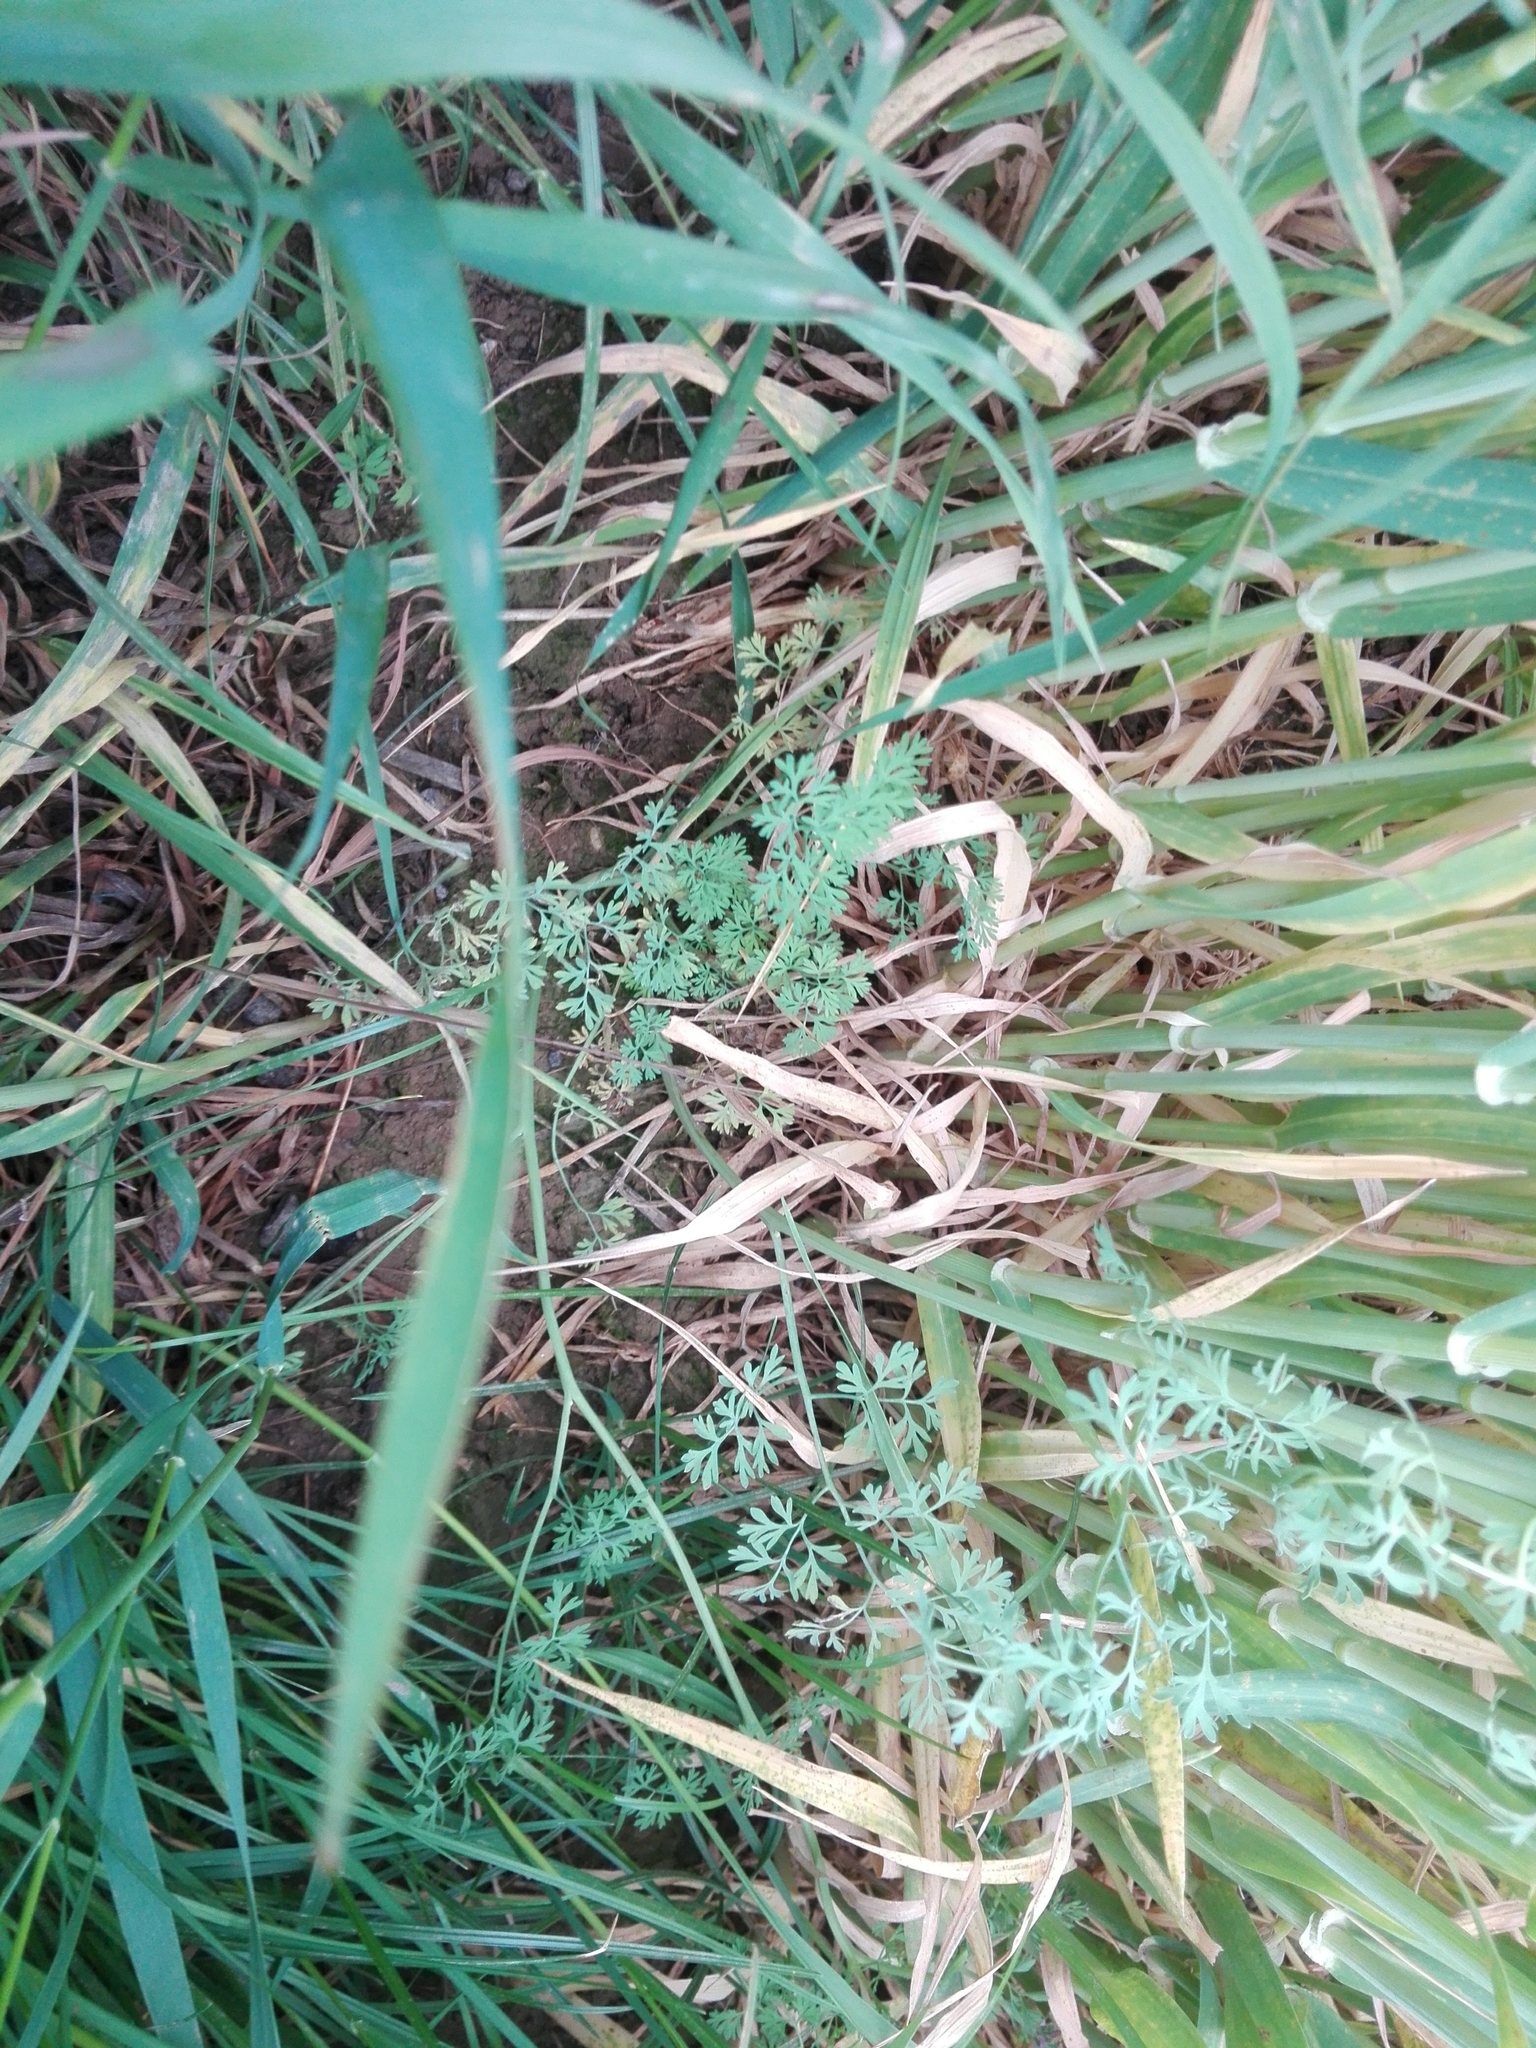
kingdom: Plantae
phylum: Tracheophyta
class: Magnoliopsida
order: Ranunculales
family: Papaveraceae
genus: Fumaria
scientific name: Fumaria officinalis
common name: Common fumitory
